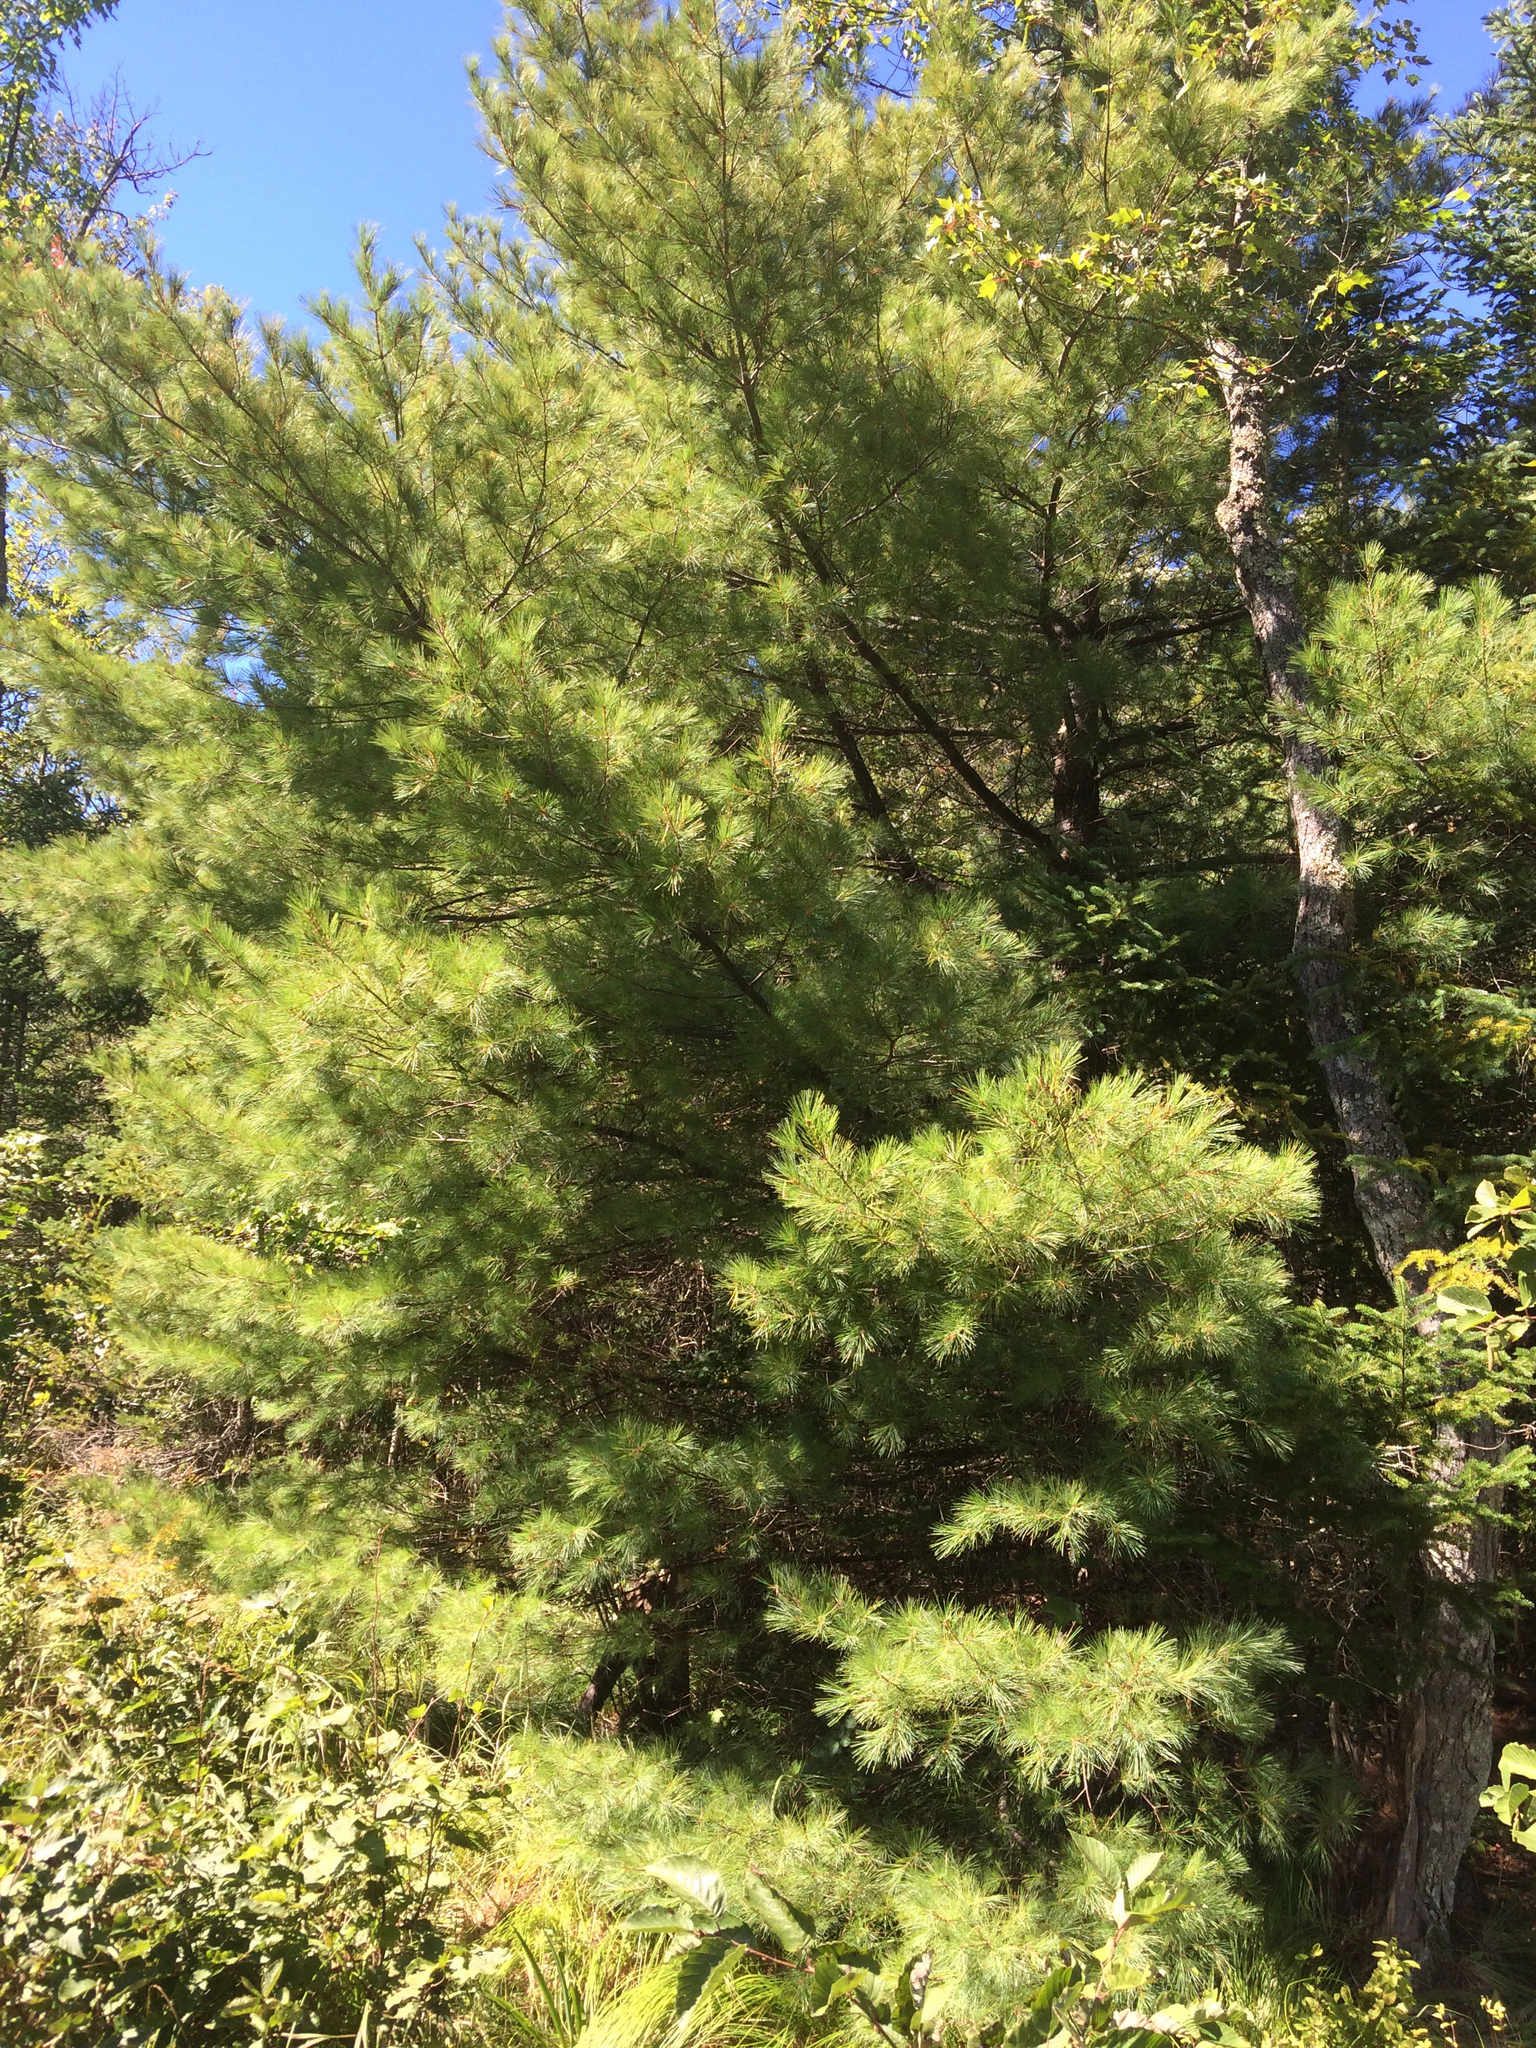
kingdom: Plantae
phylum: Tracheophyta
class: Pinopsida
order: Pinales
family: Pinaceae
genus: Pinus
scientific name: Pinus strobus
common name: Weymouth pine
